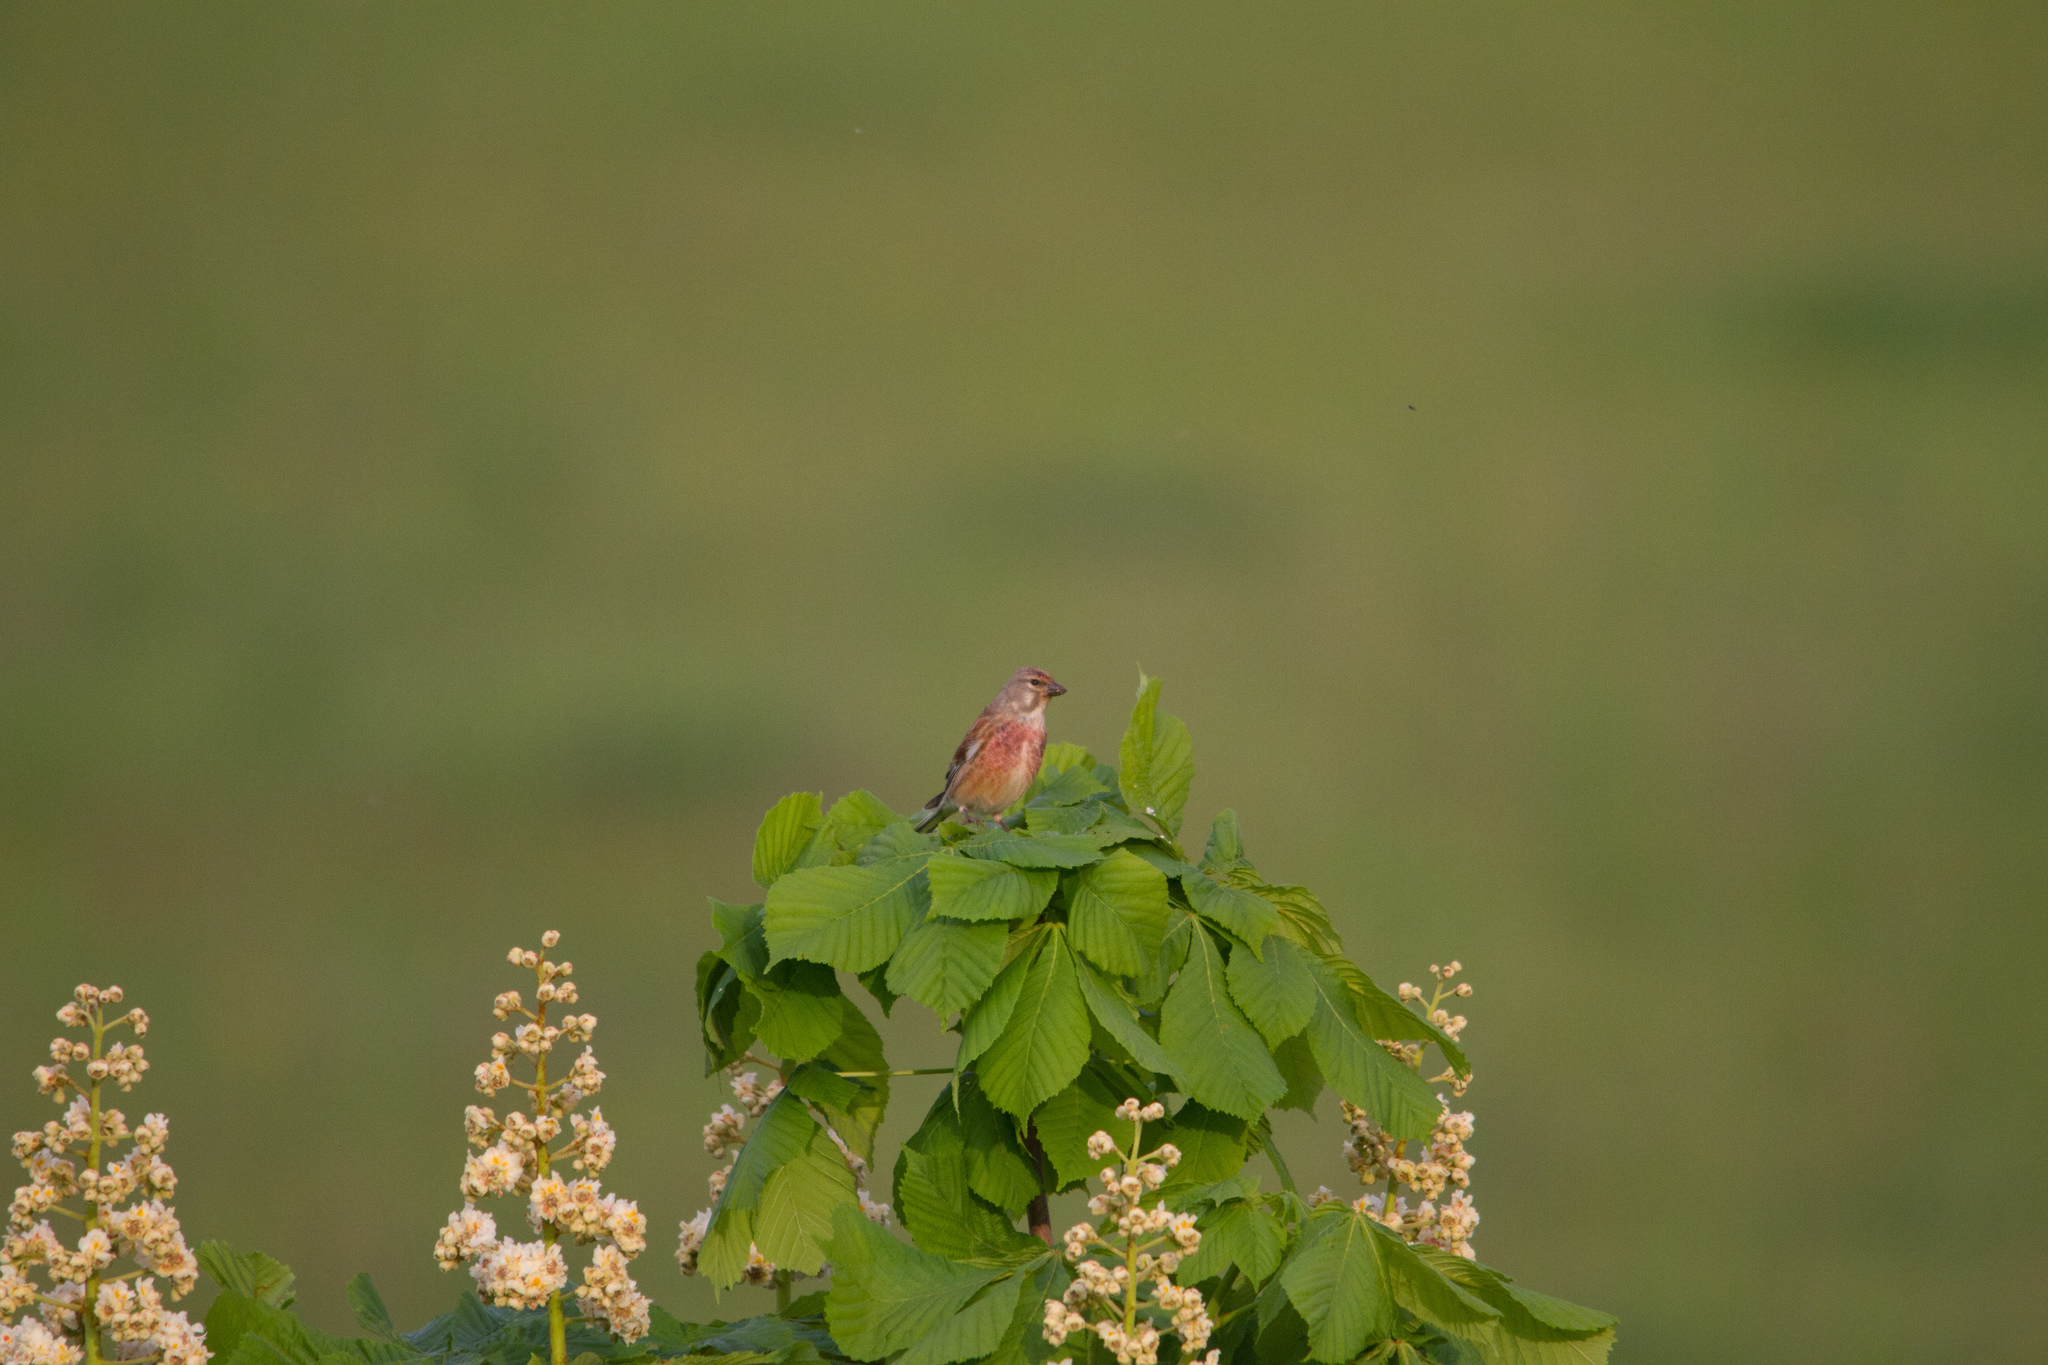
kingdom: Animalia
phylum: Chordata
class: Aves
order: Passeriformes
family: Fringillidae
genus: Linaria
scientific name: Linaria cannabina
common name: Common linnet
